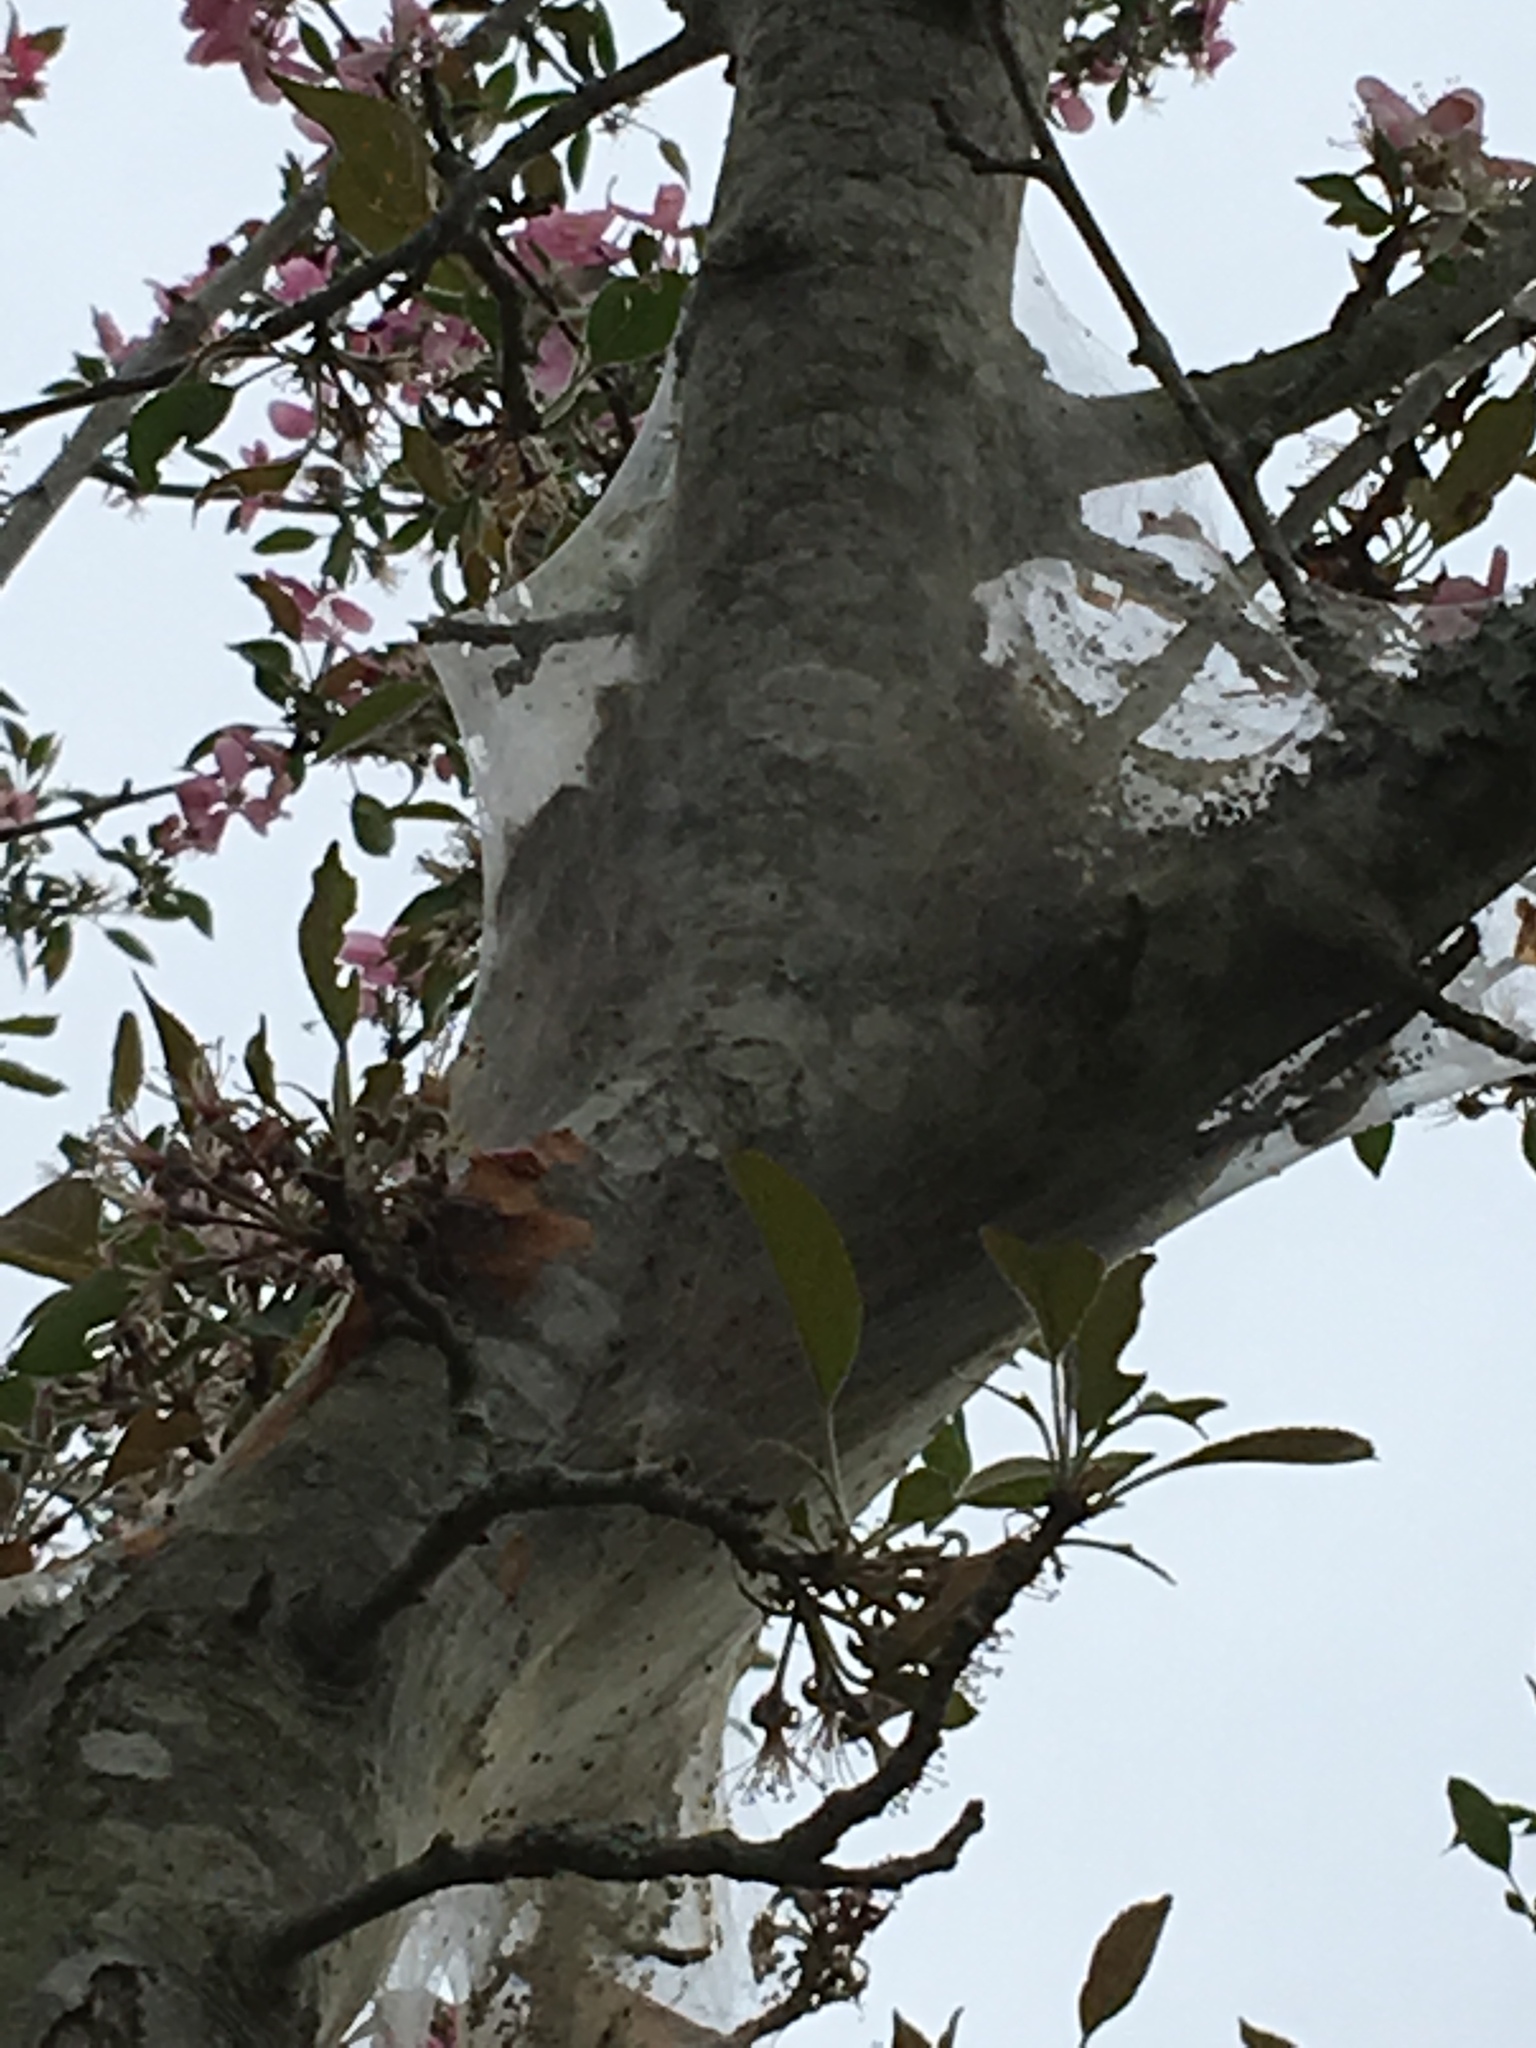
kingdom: Animalia
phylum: Arthropoda
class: Insecta
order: Lepidoptera
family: Lasiocampidae
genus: Malacosoma
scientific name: Malacosoma americana
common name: Eastern tent caterpillar moth
